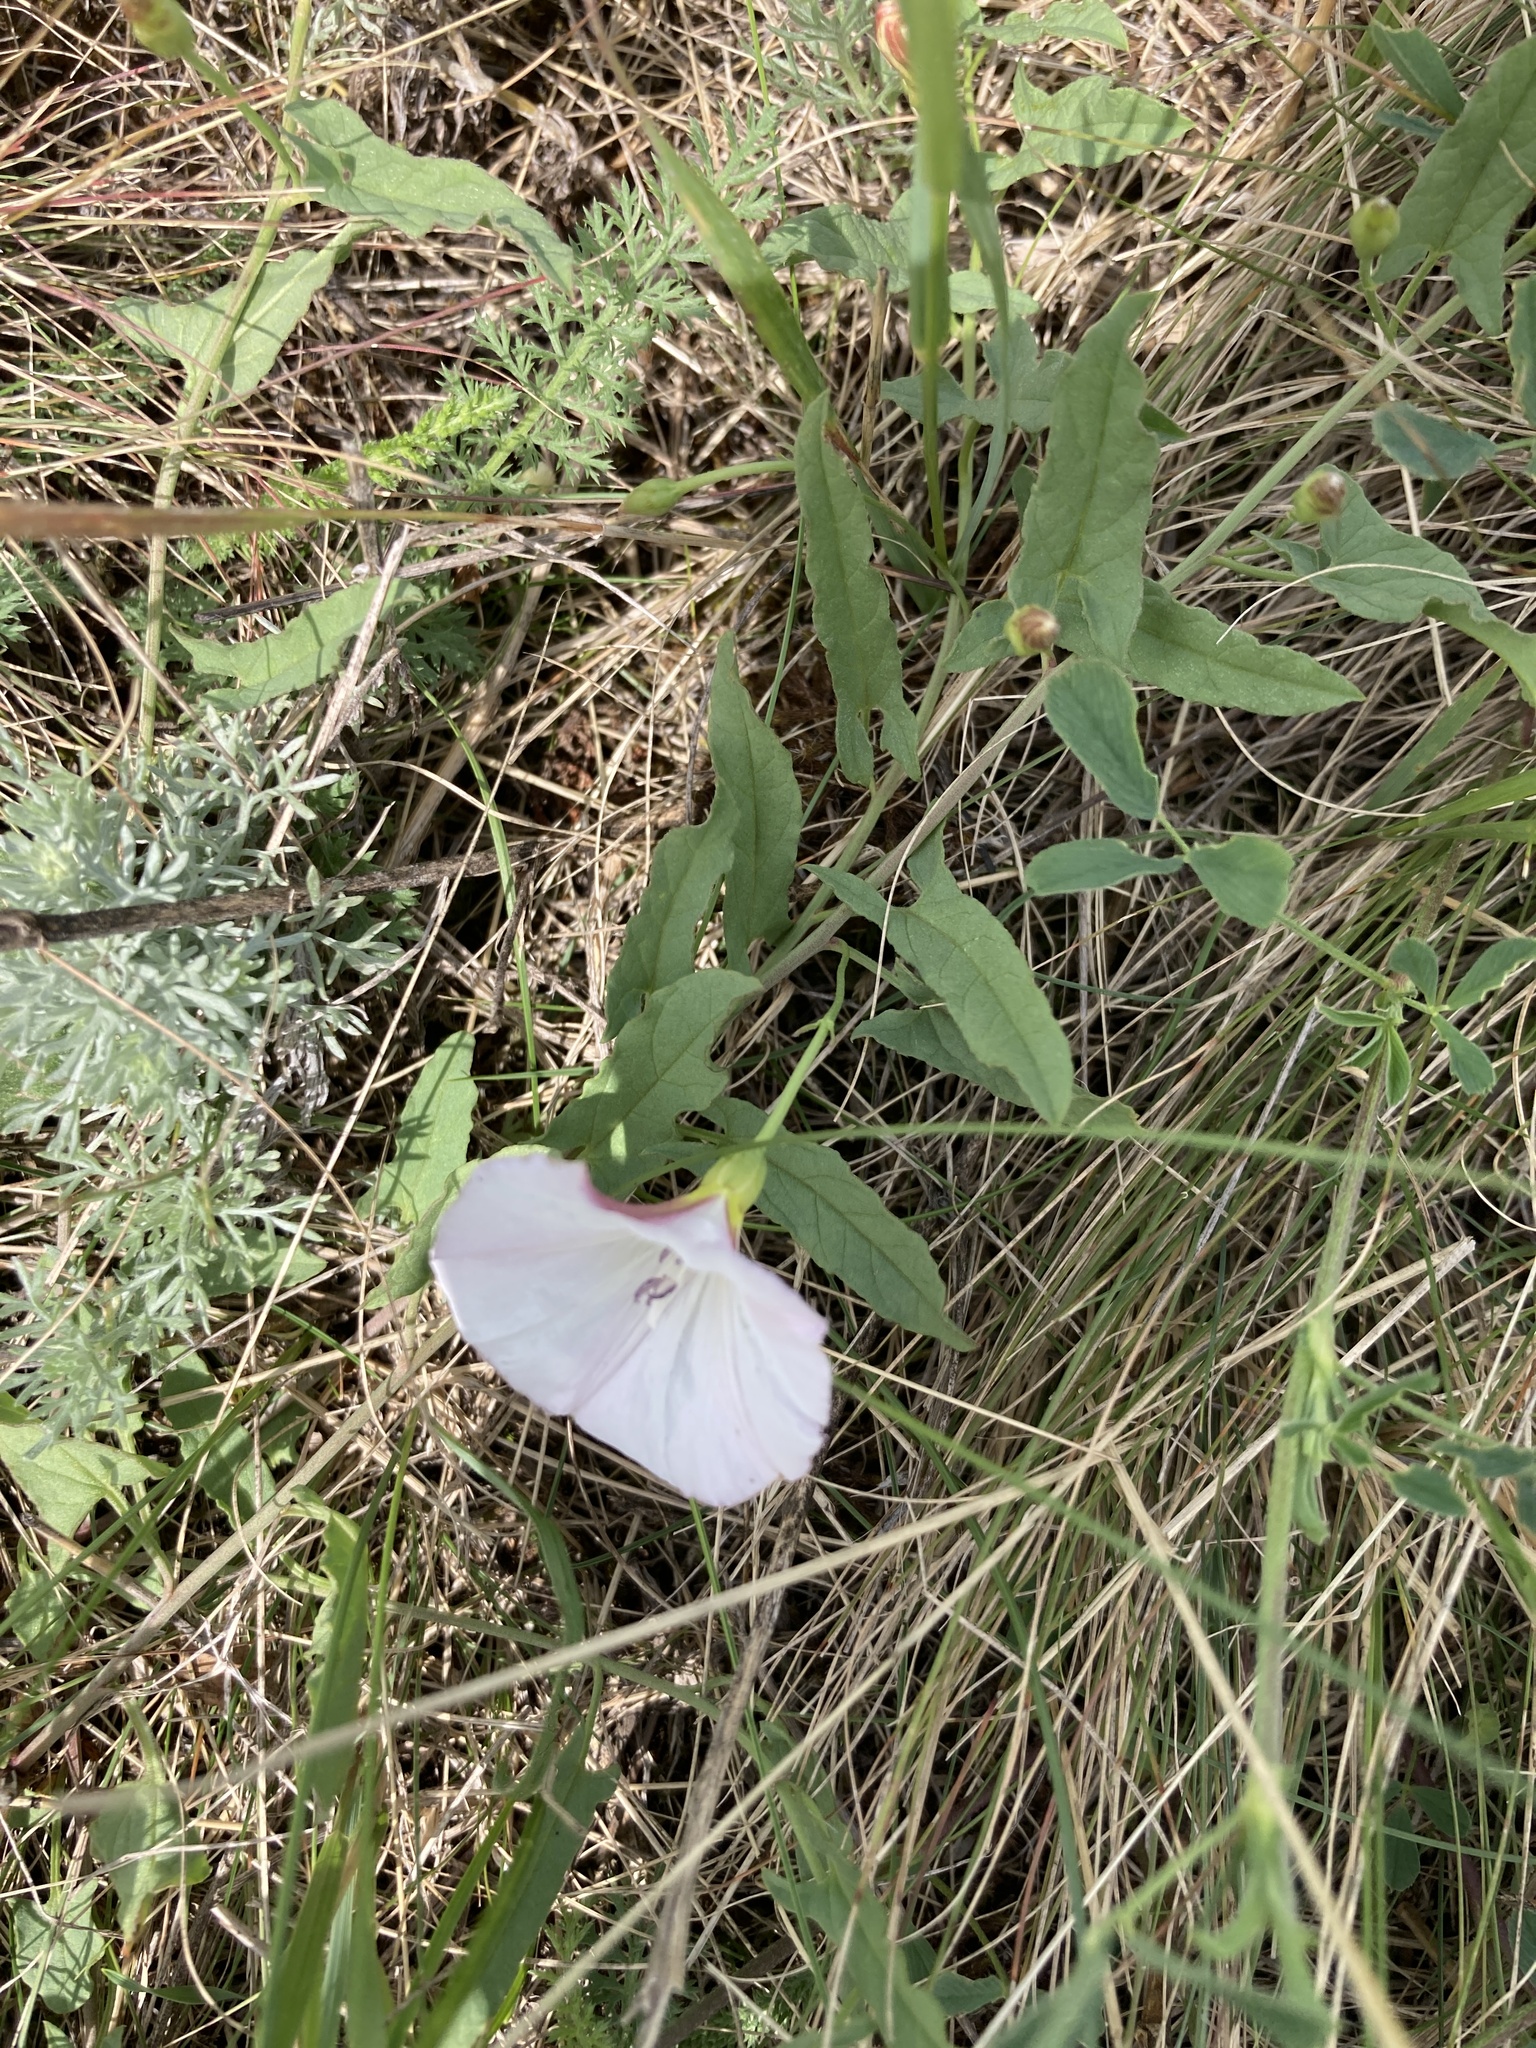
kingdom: Plantae
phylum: Tracheophyta
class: Magnoliopsida
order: Solanales
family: Convolvulaceae
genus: Convolvulus
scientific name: Convolvulus arvensis
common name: Field bindweed
